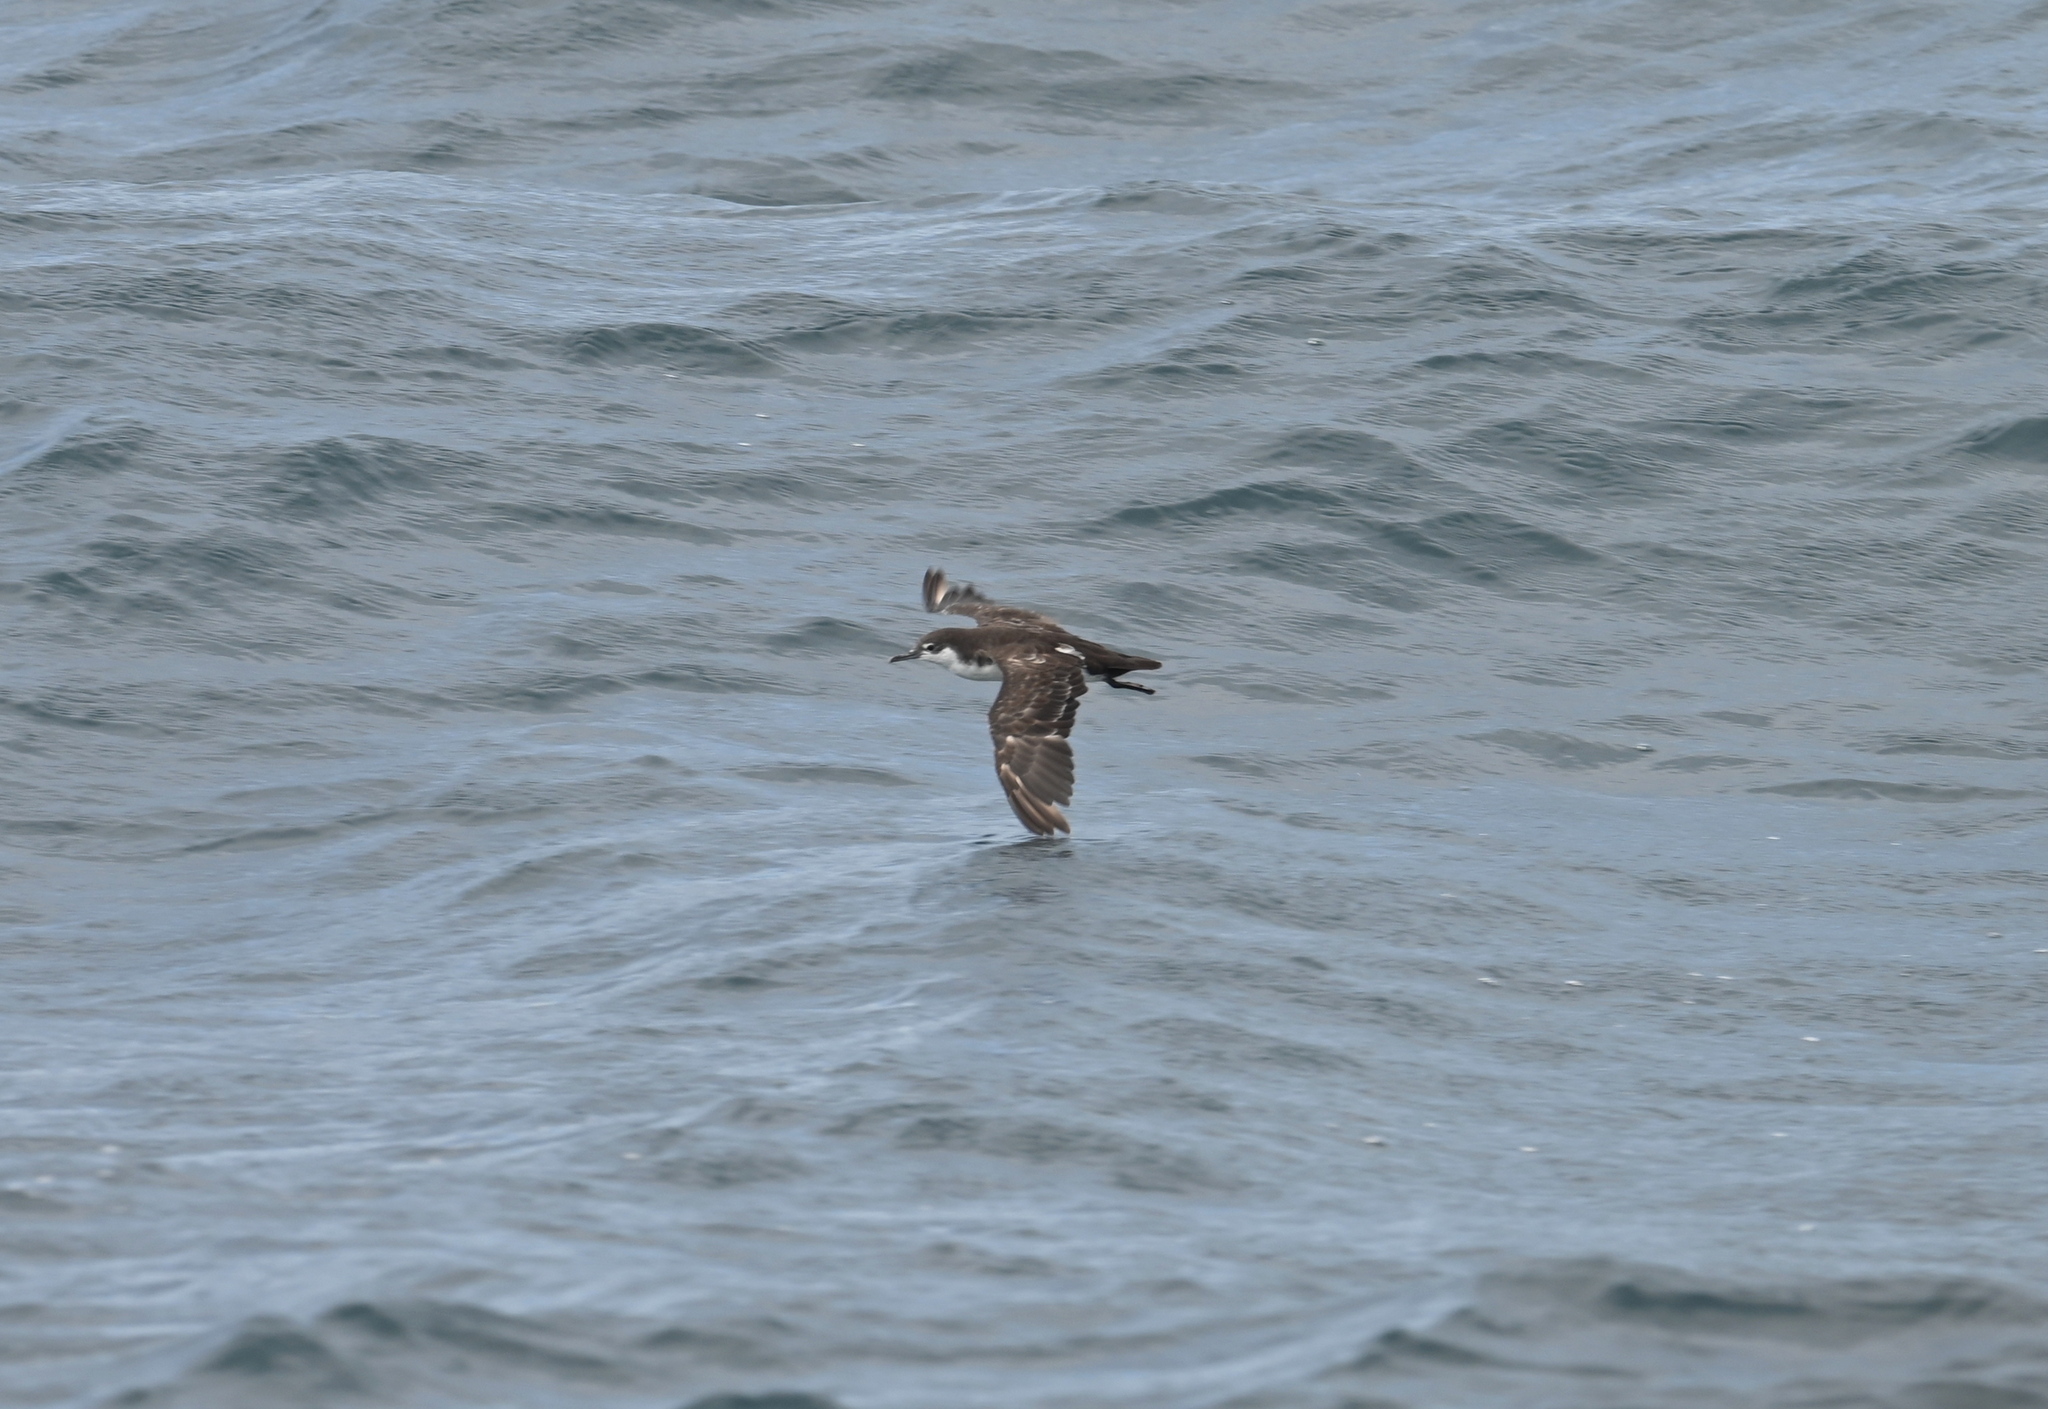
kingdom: Animalia
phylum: Chordata
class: Aves
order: Procellariiformes
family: Procellariidae
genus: Puffinus
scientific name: Puffinus subalaris
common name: Galapagos shearwater
